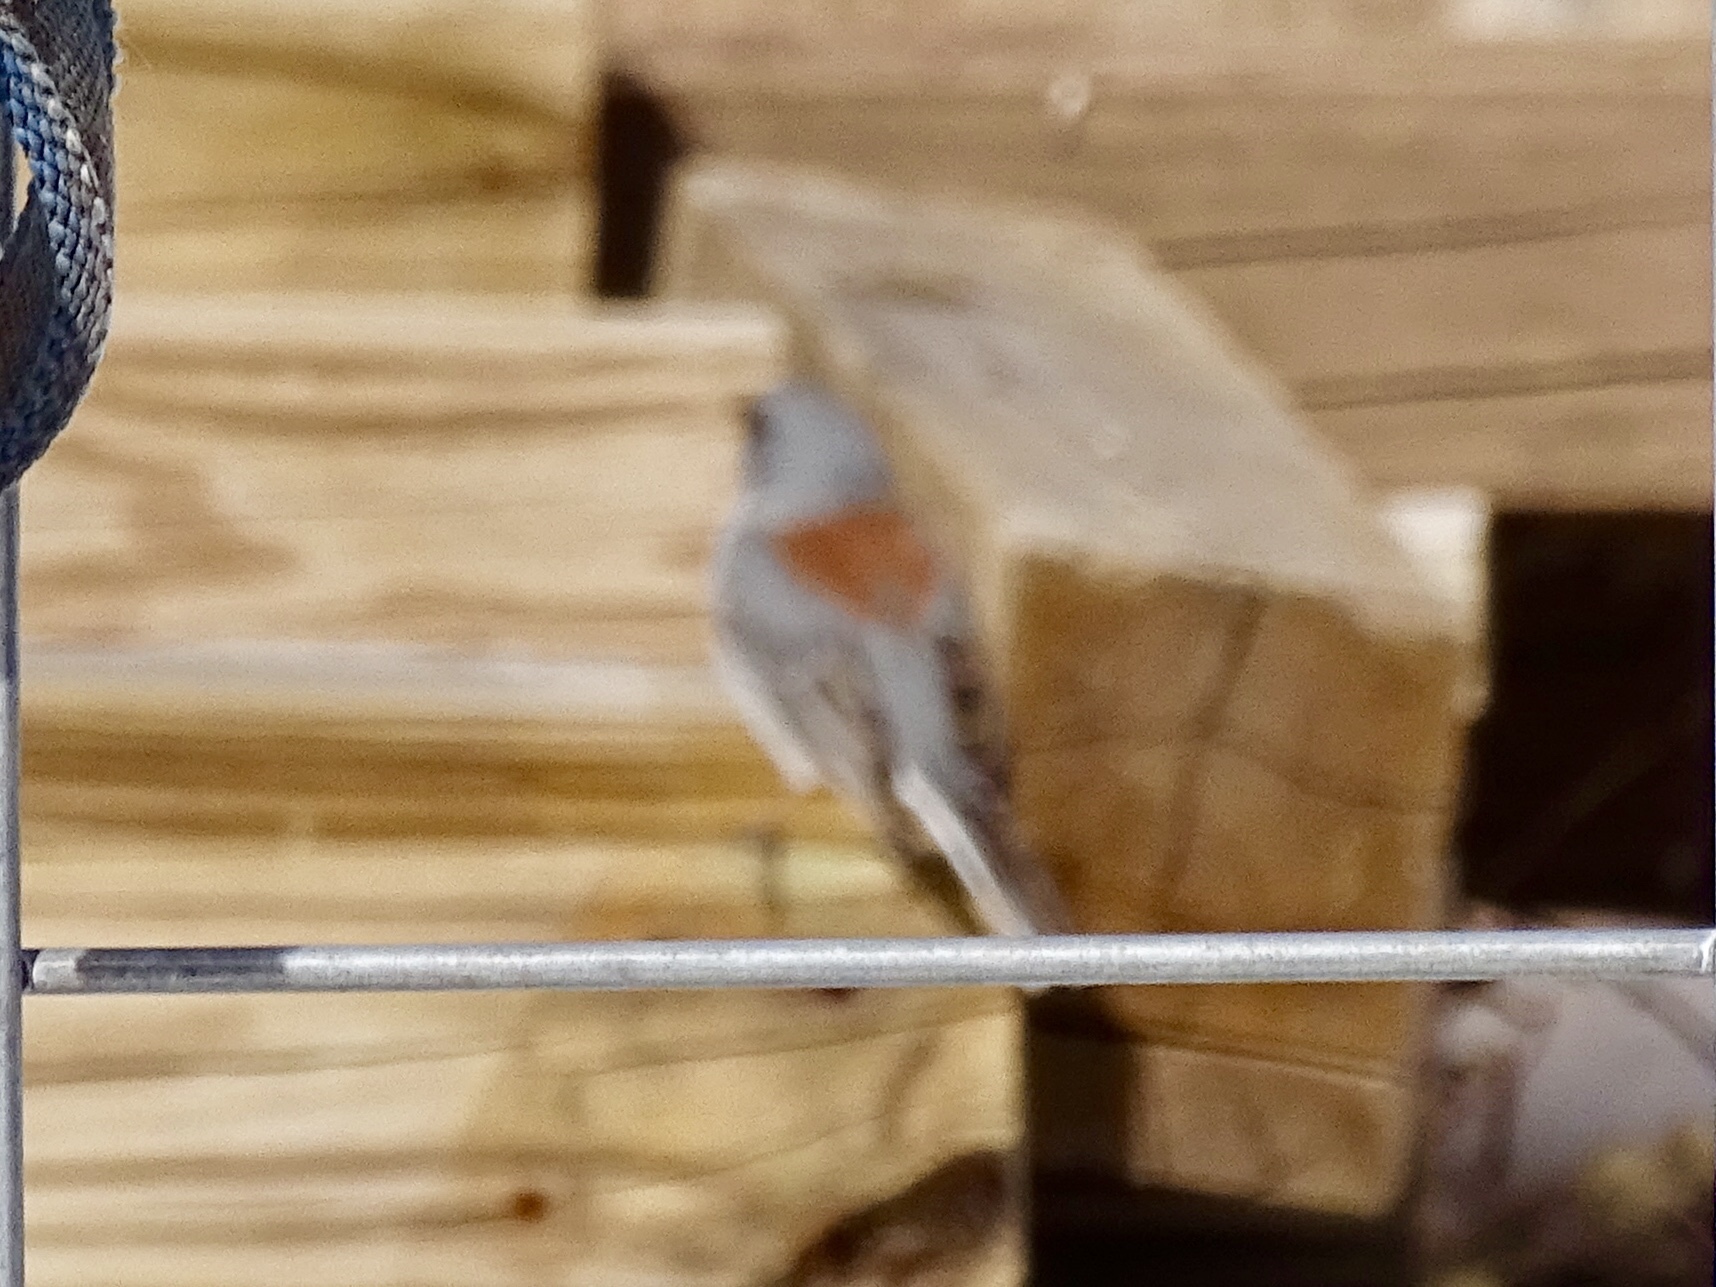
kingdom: Animalia
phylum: Chordata
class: Aves
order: Passeriformes
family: Passerellidae
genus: Junco
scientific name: Junco hyemalis
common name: Dark-eyed junco
